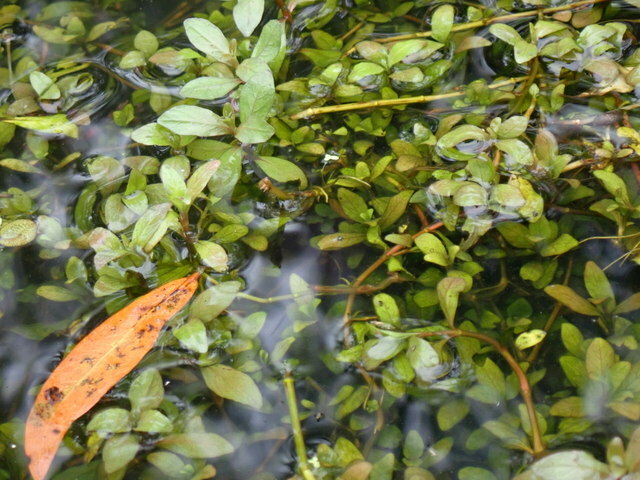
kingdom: Plantae
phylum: Tracheophyta
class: Magnoliopsida
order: Lamiales
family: Acanthaceae
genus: Hygrophila
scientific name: Hygrophila polysperma
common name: Indian swampweed
